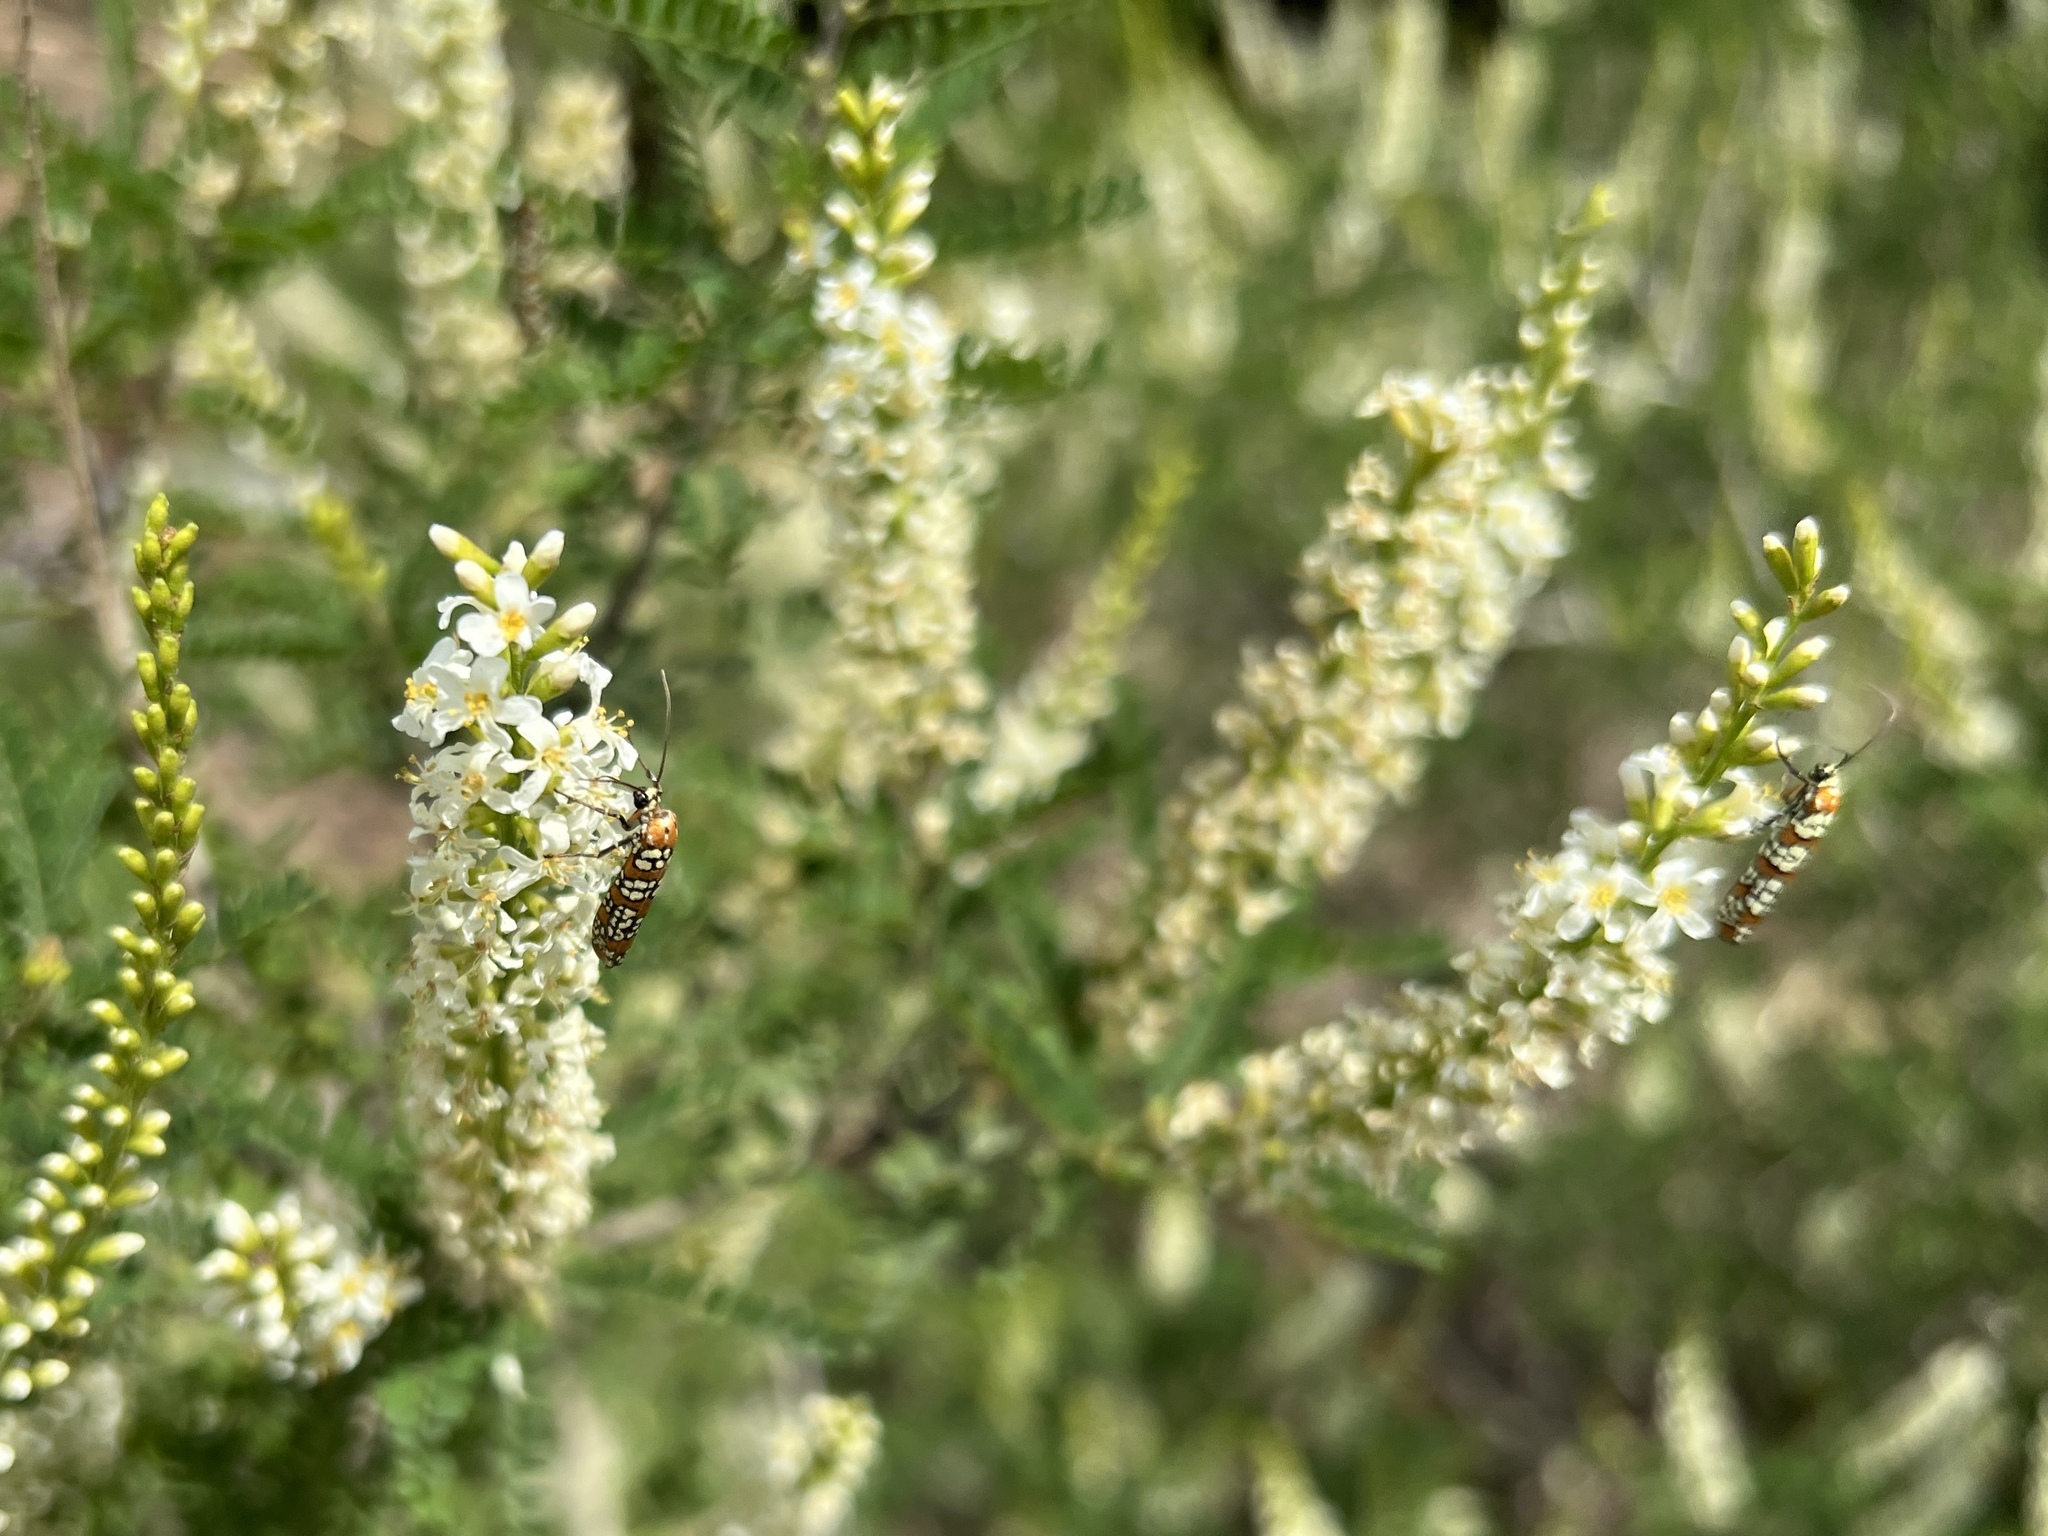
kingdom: Animalia
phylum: Arthropoda
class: Insecta
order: Lepidoptera
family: Attevidae
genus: Atteva
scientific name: Atteva punctella
